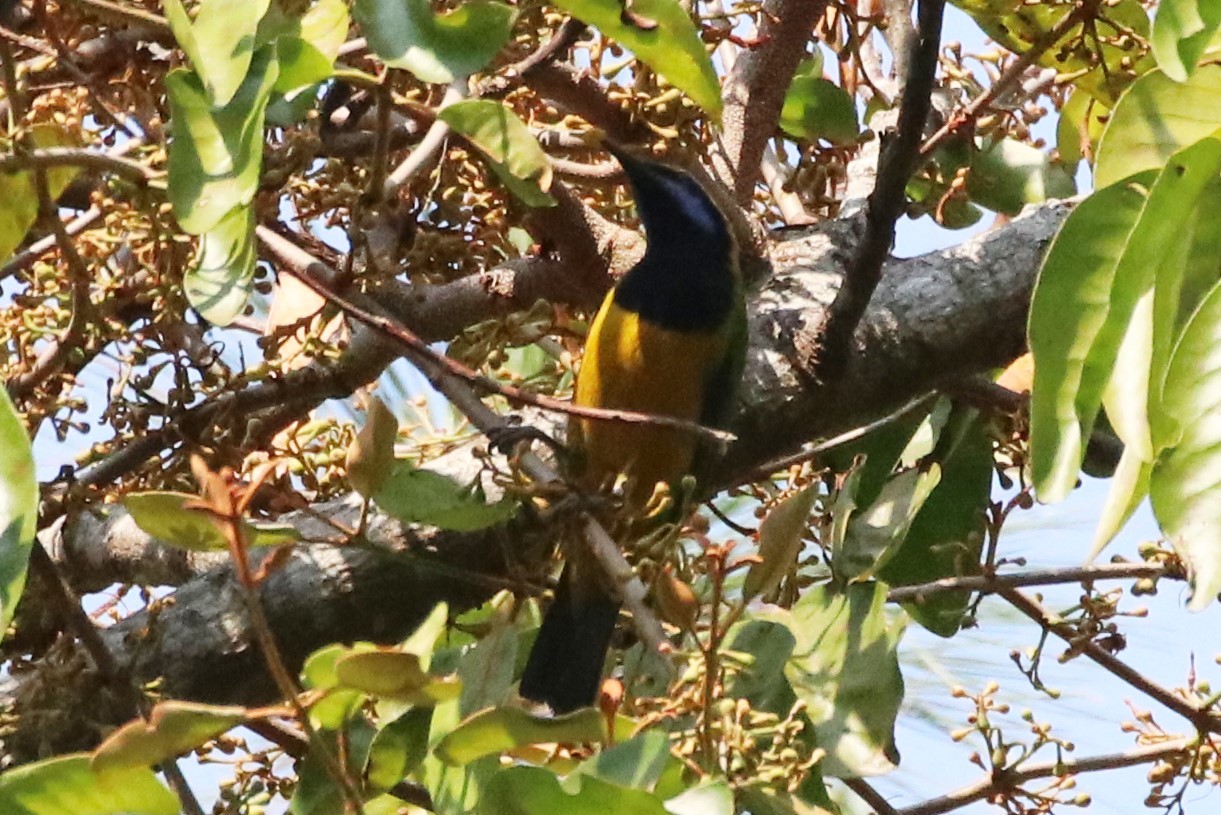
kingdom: Animalia
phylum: Chordata
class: Aves
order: Passeriformes
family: Chloropseidae
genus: Chloropsis
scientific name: Chloropsis hardwickii
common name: Orange-bellied leafbird
